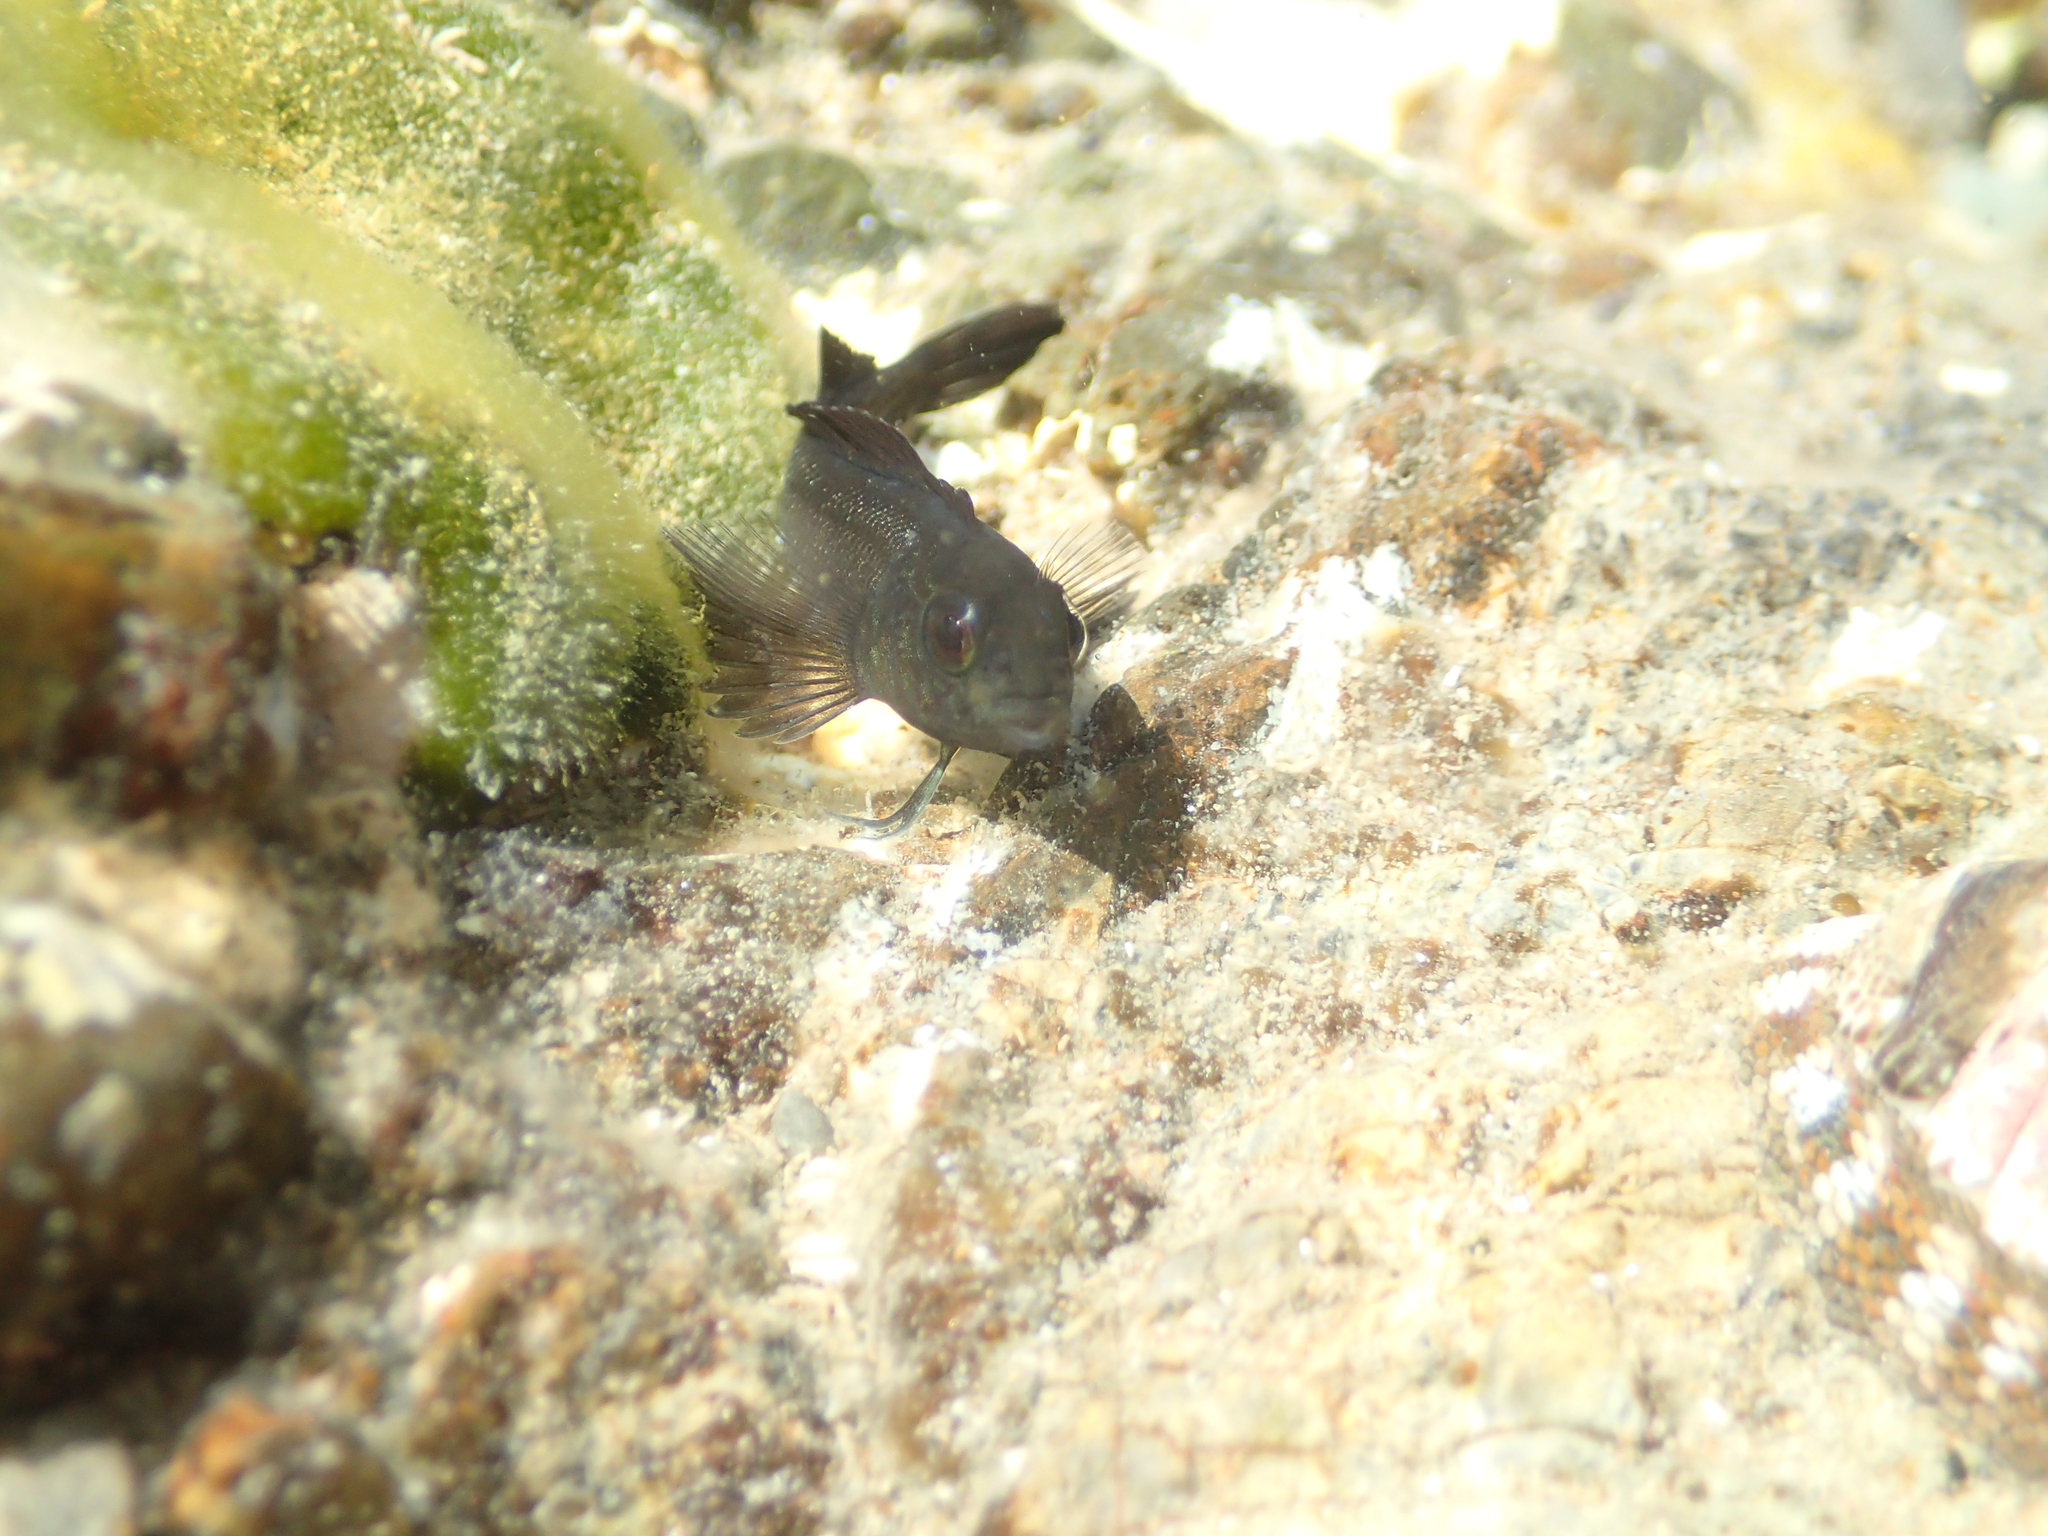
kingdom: Animalia
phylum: Chordata
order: Perciformes
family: Tripterygiidae
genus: Forsterygion
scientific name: Forsterygion lapillum
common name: Common triplefin
